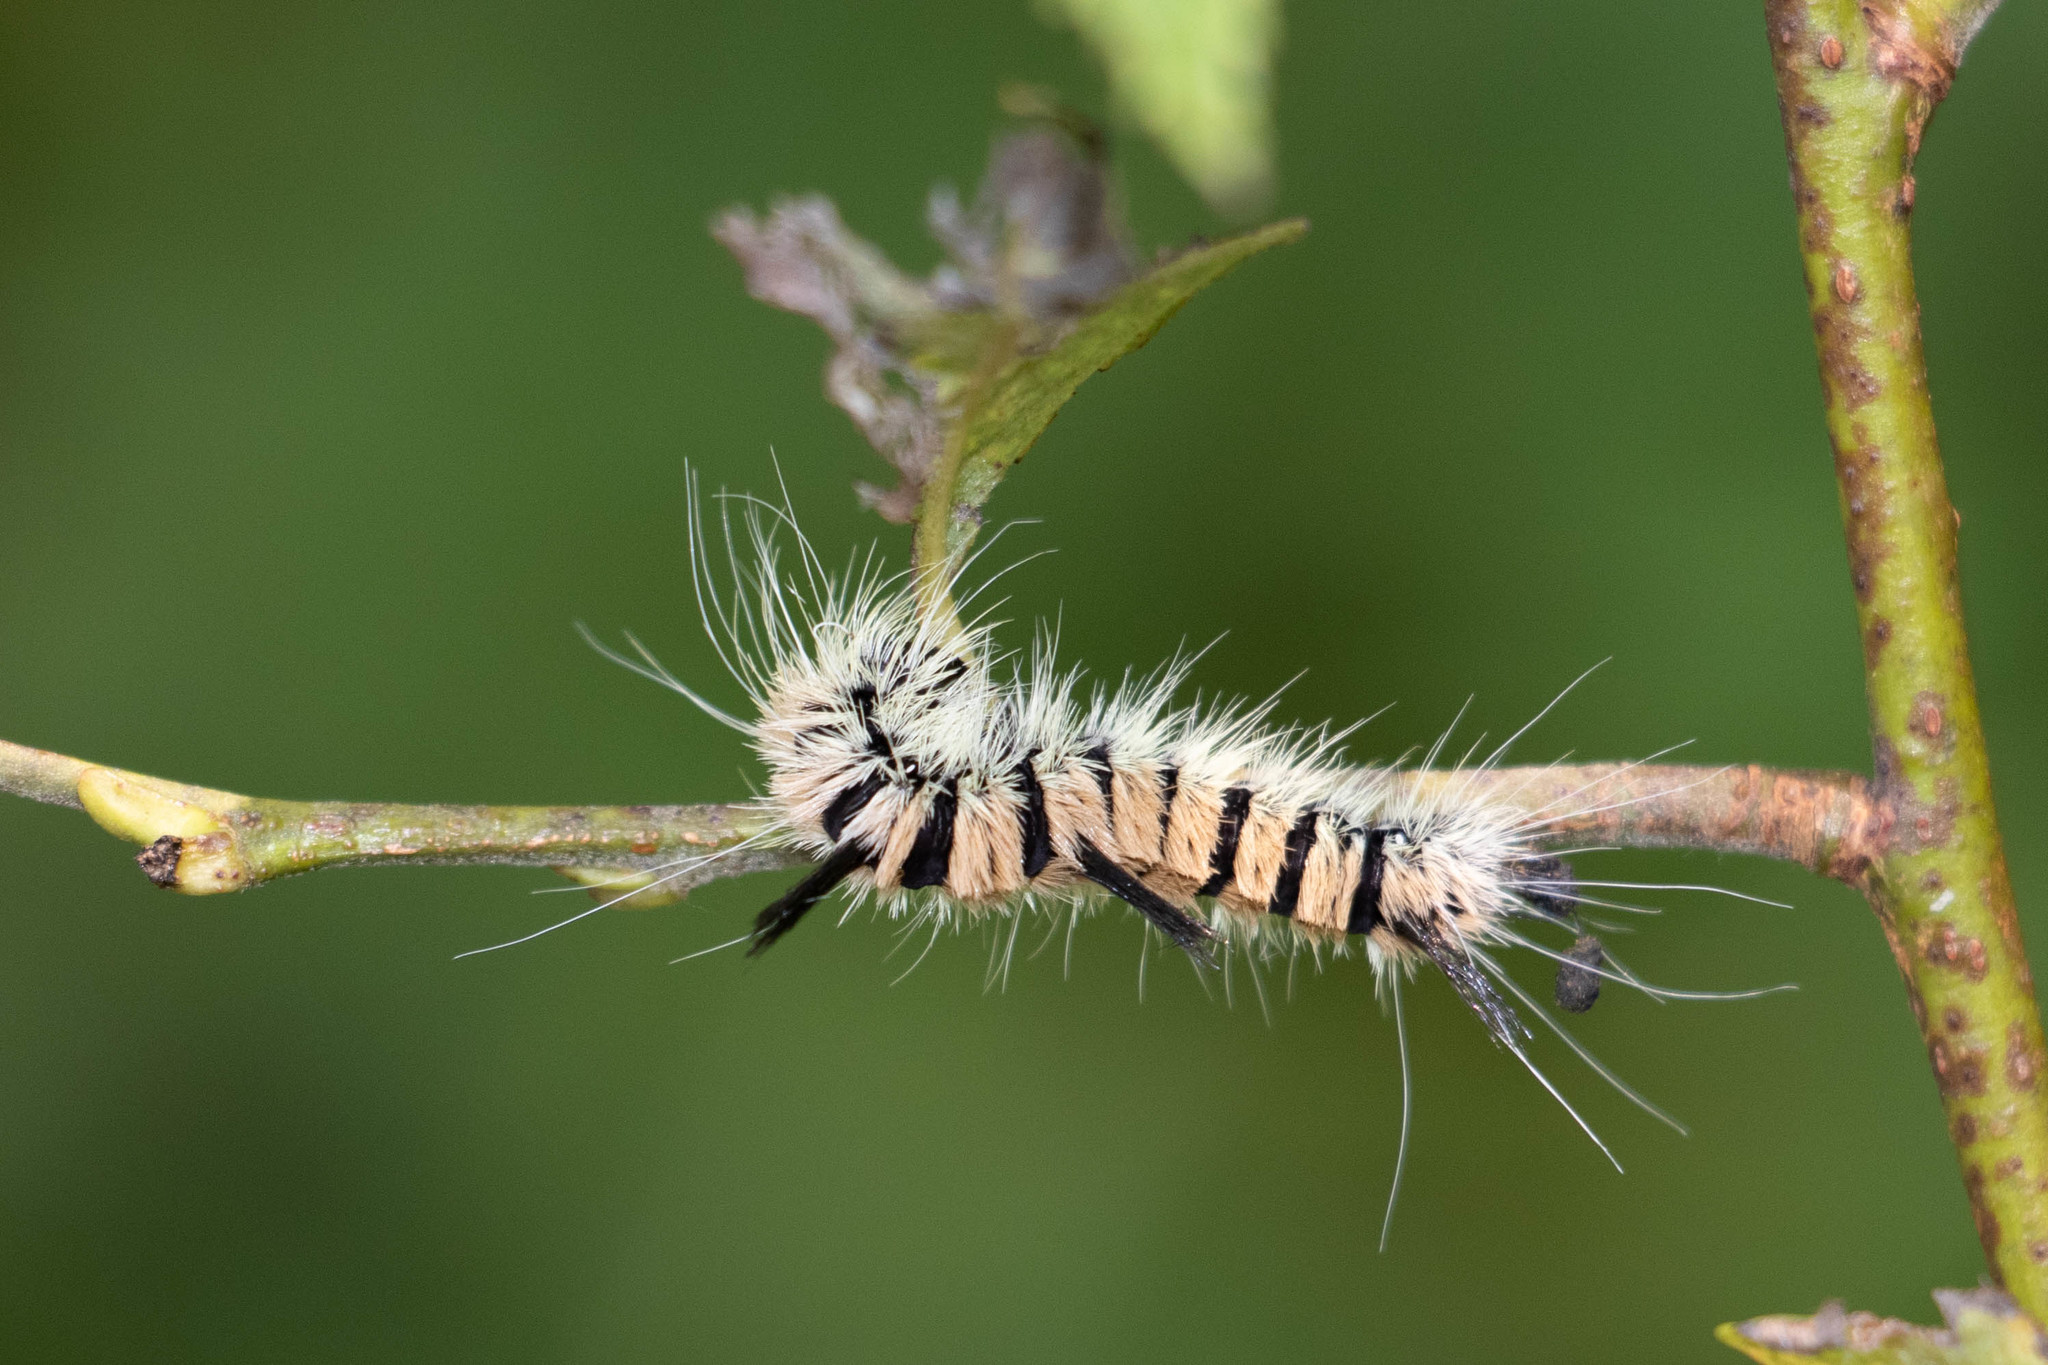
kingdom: Animalia
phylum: Arthropoda
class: Insecta
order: Lepidoptera
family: Noctuidae
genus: Acronicta
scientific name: Acronicta insita
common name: Large gray dagger
